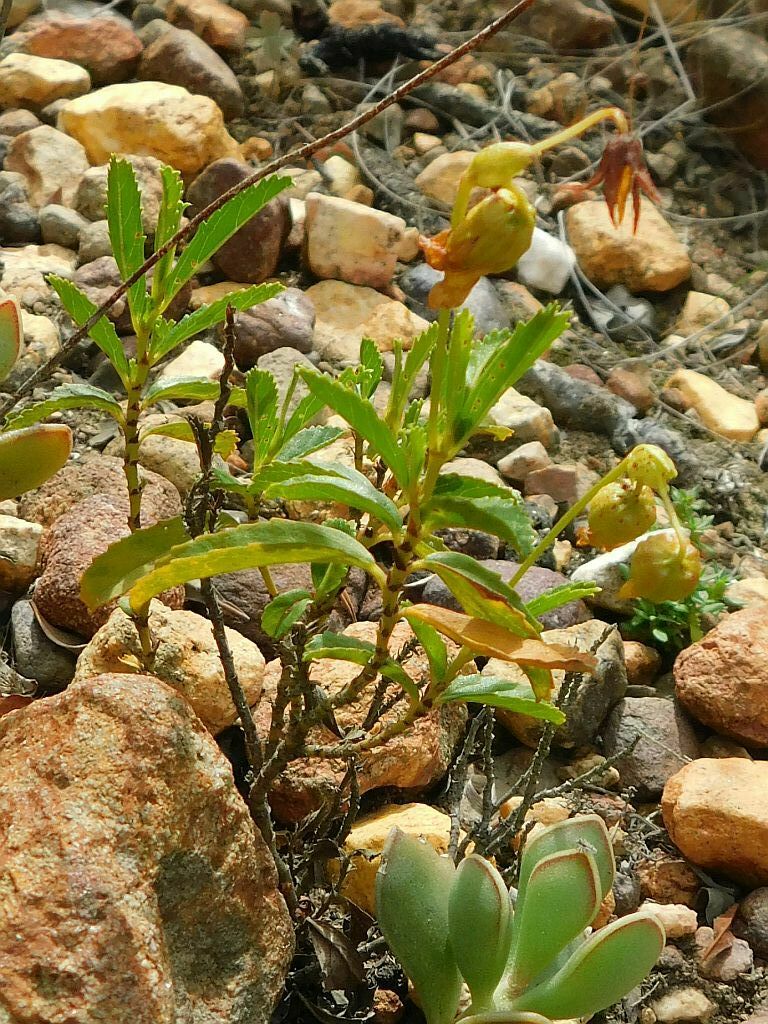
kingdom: Plantae
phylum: Tracheophyta
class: Magnoliopsida
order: Malvales
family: Malvaceae
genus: Hermannia
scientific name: Hermannia saccifera
